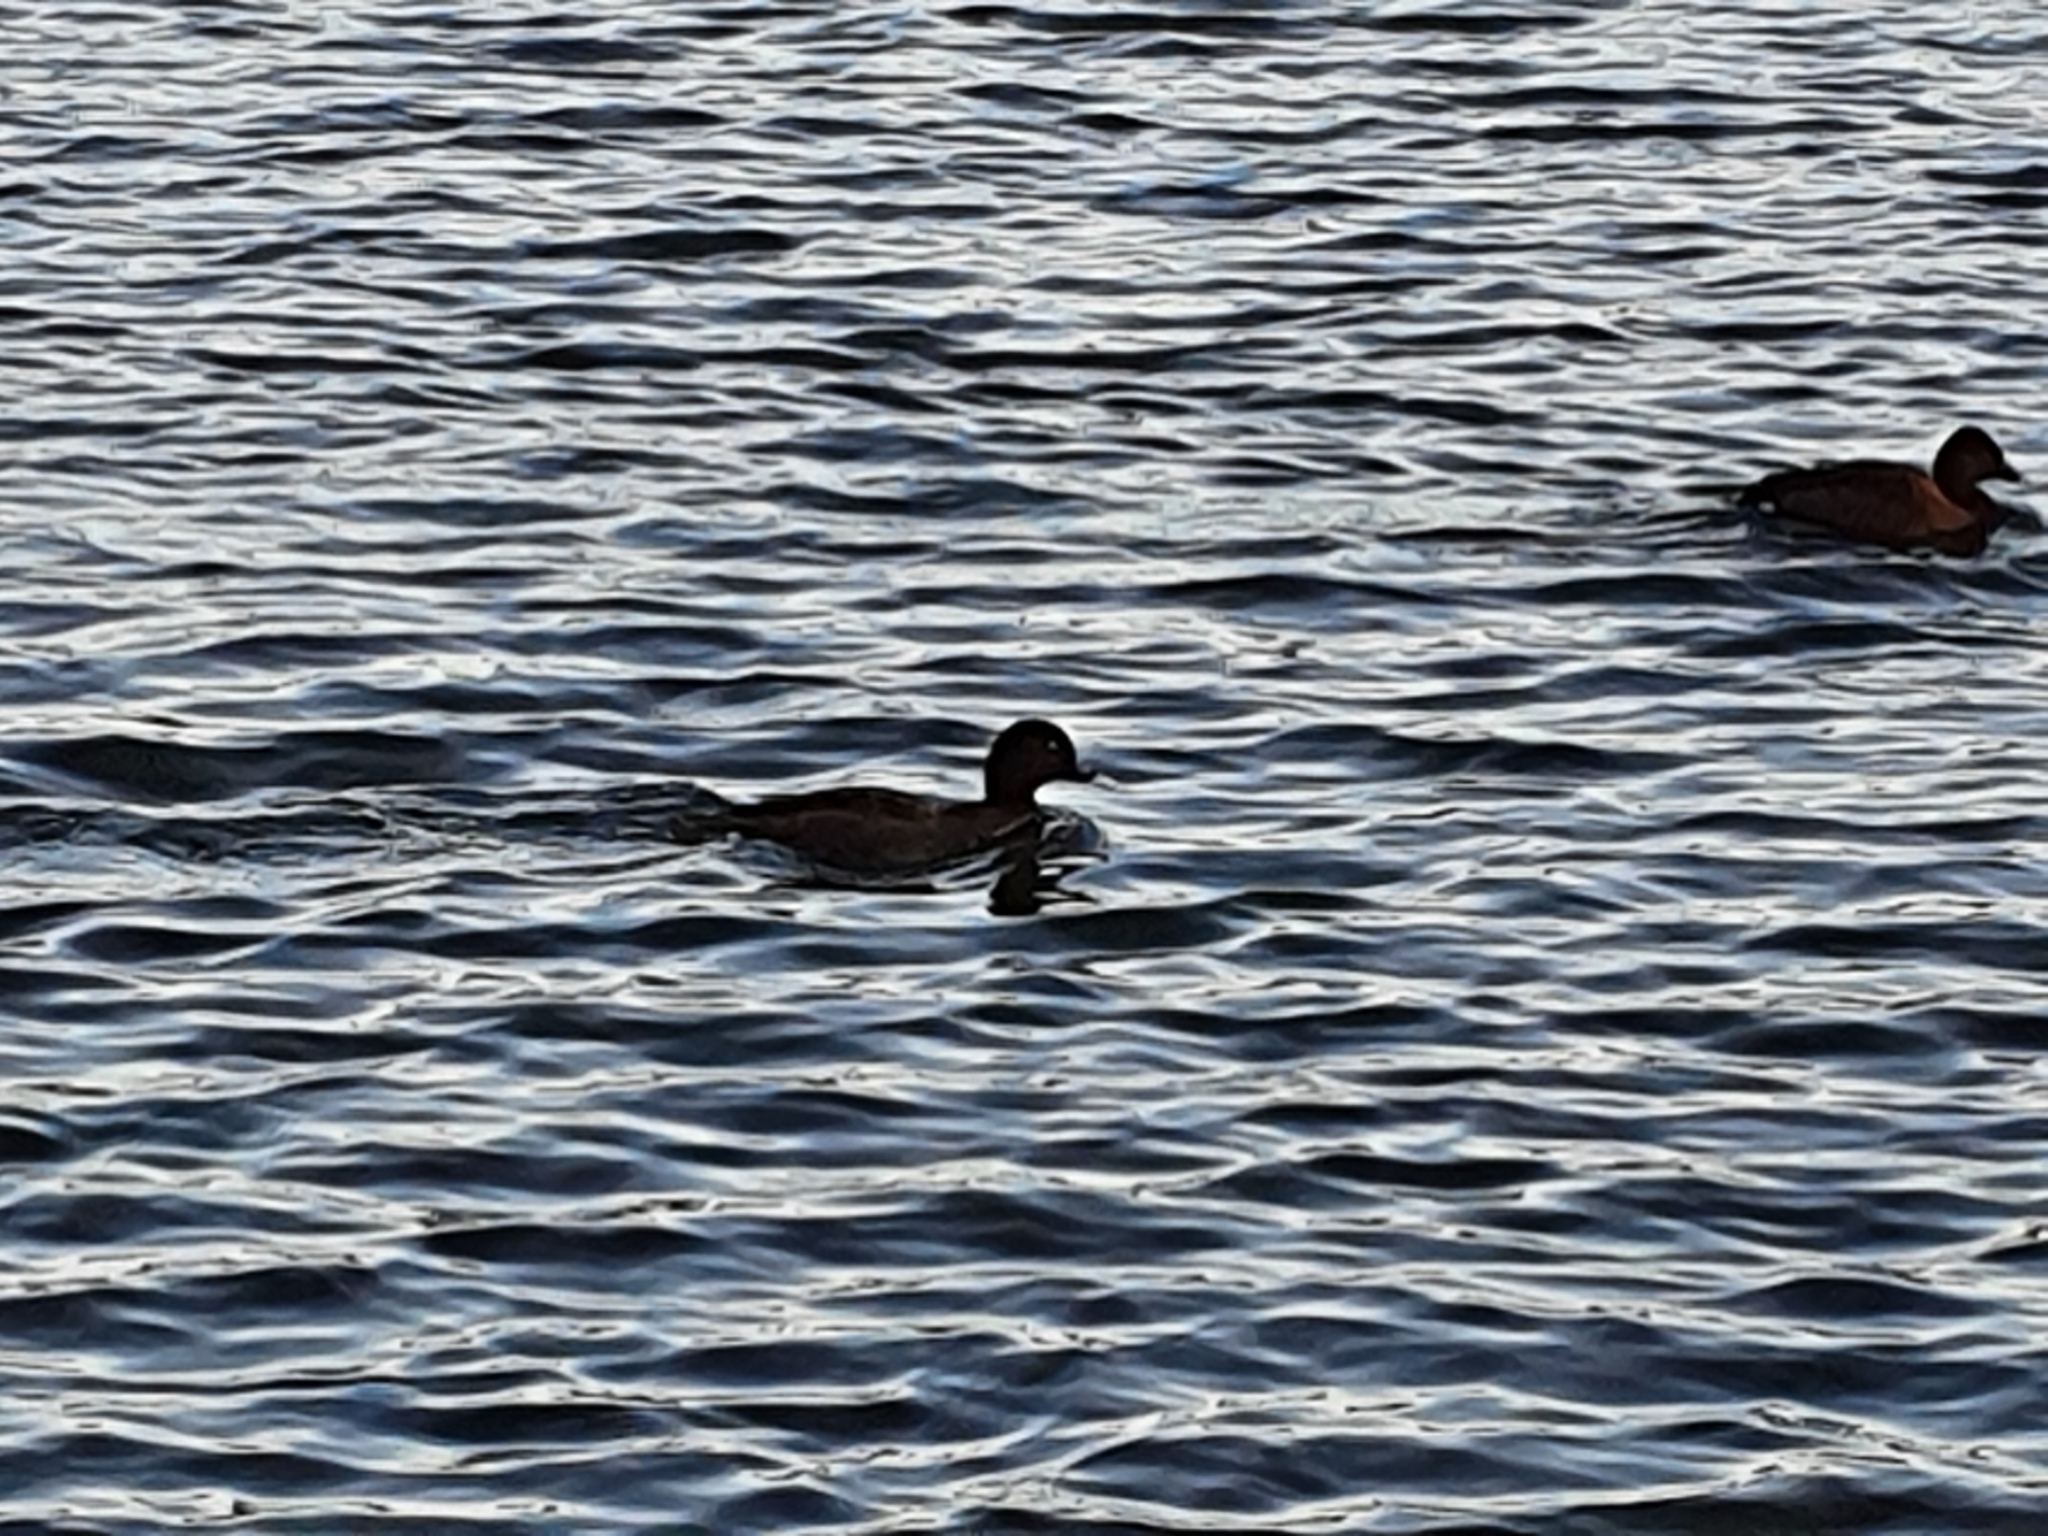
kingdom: Animalia
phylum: Chordata
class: Aves
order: Anseriformes
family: Anatidae
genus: Aythya
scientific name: Aythya australis
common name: Hardhead
